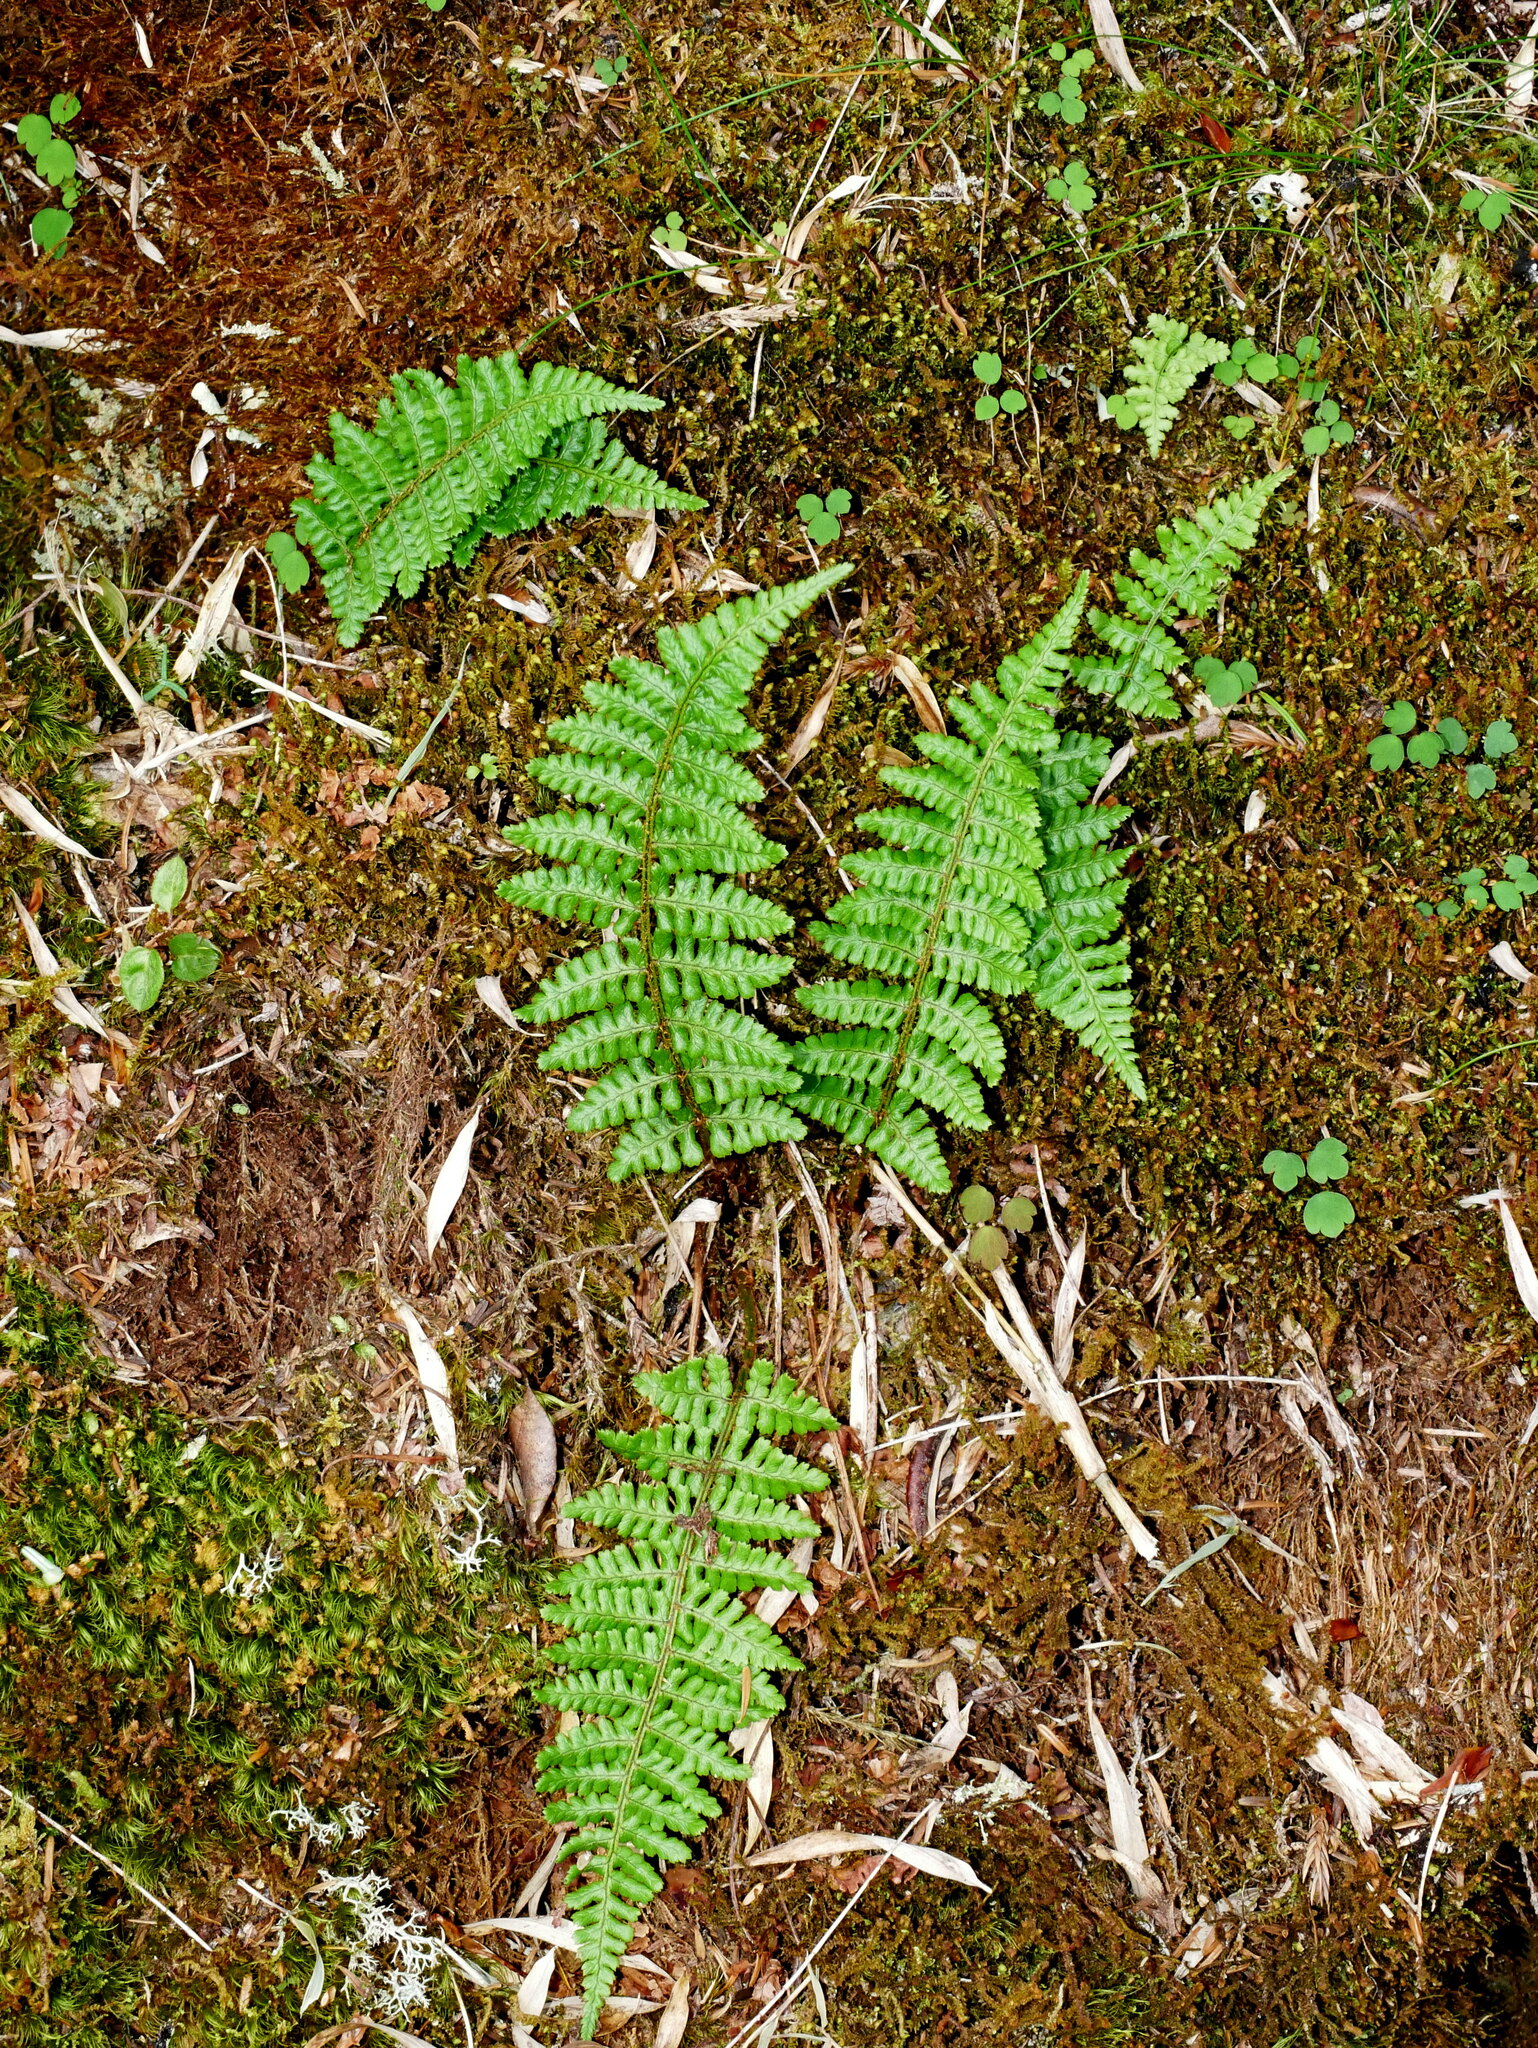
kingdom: Plantae
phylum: Tracheophyta
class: Polypodiopsida
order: Polypodiales
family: Dryopteridaceae
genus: Dryopteris
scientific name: Dryopteris acutodentata
